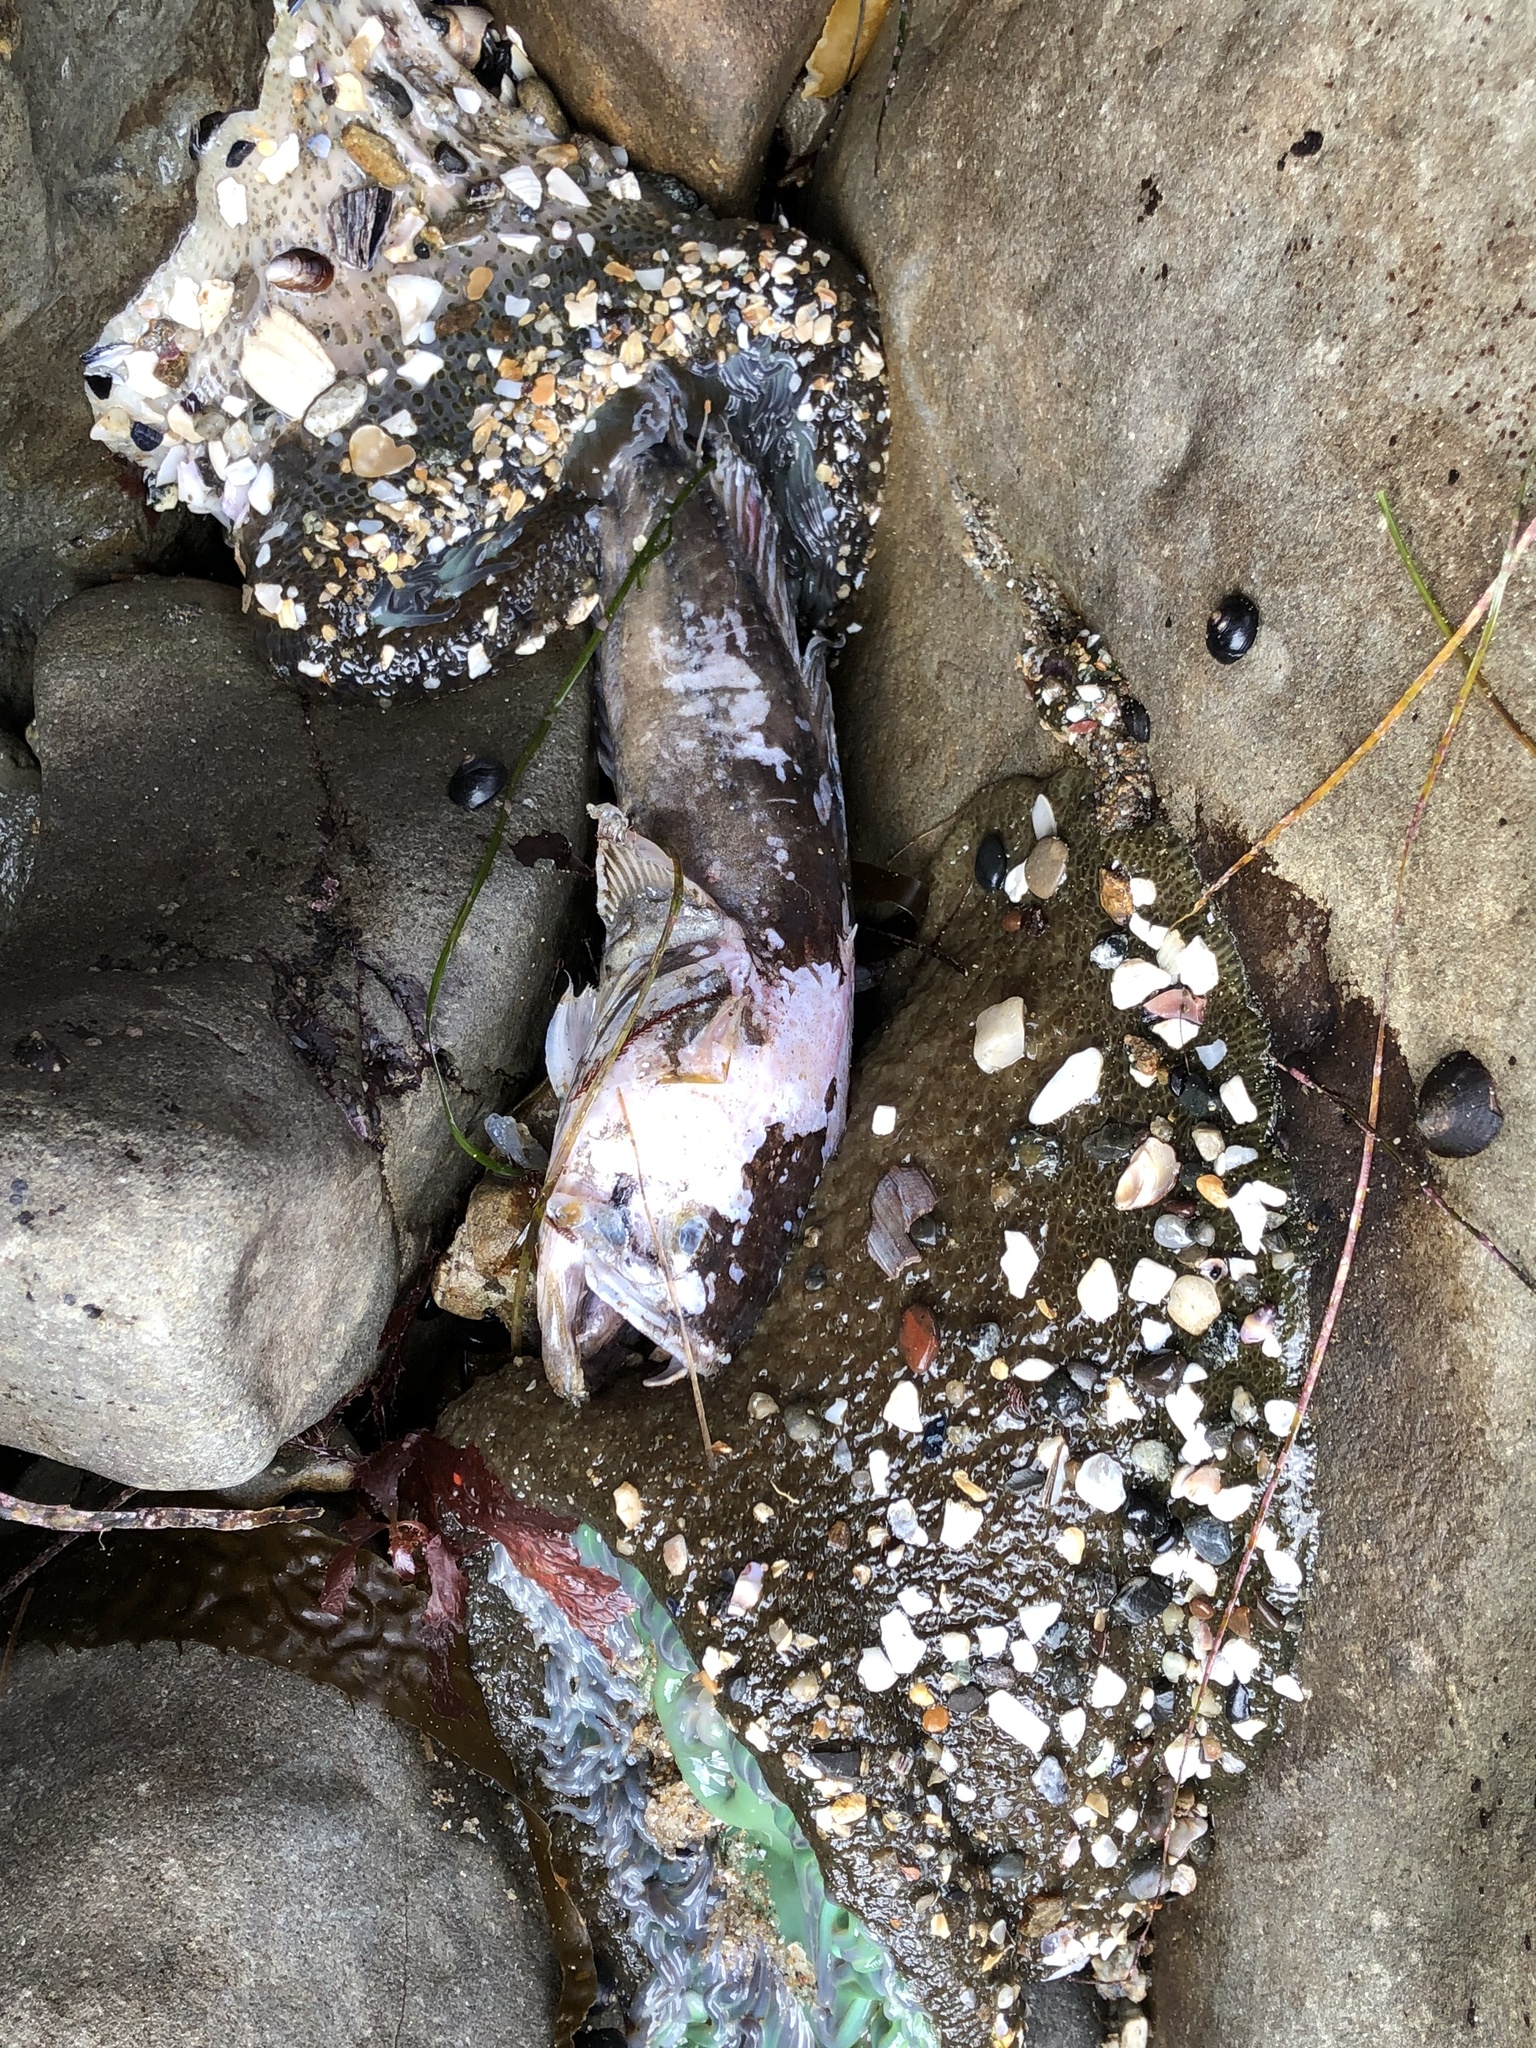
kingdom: Animalia
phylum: Cnidaria
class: Anthozoa
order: Actiniaria
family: Actiniidae
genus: Anthopleura
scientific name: Anthopleura xanthogrammica
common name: Giant green anemone
